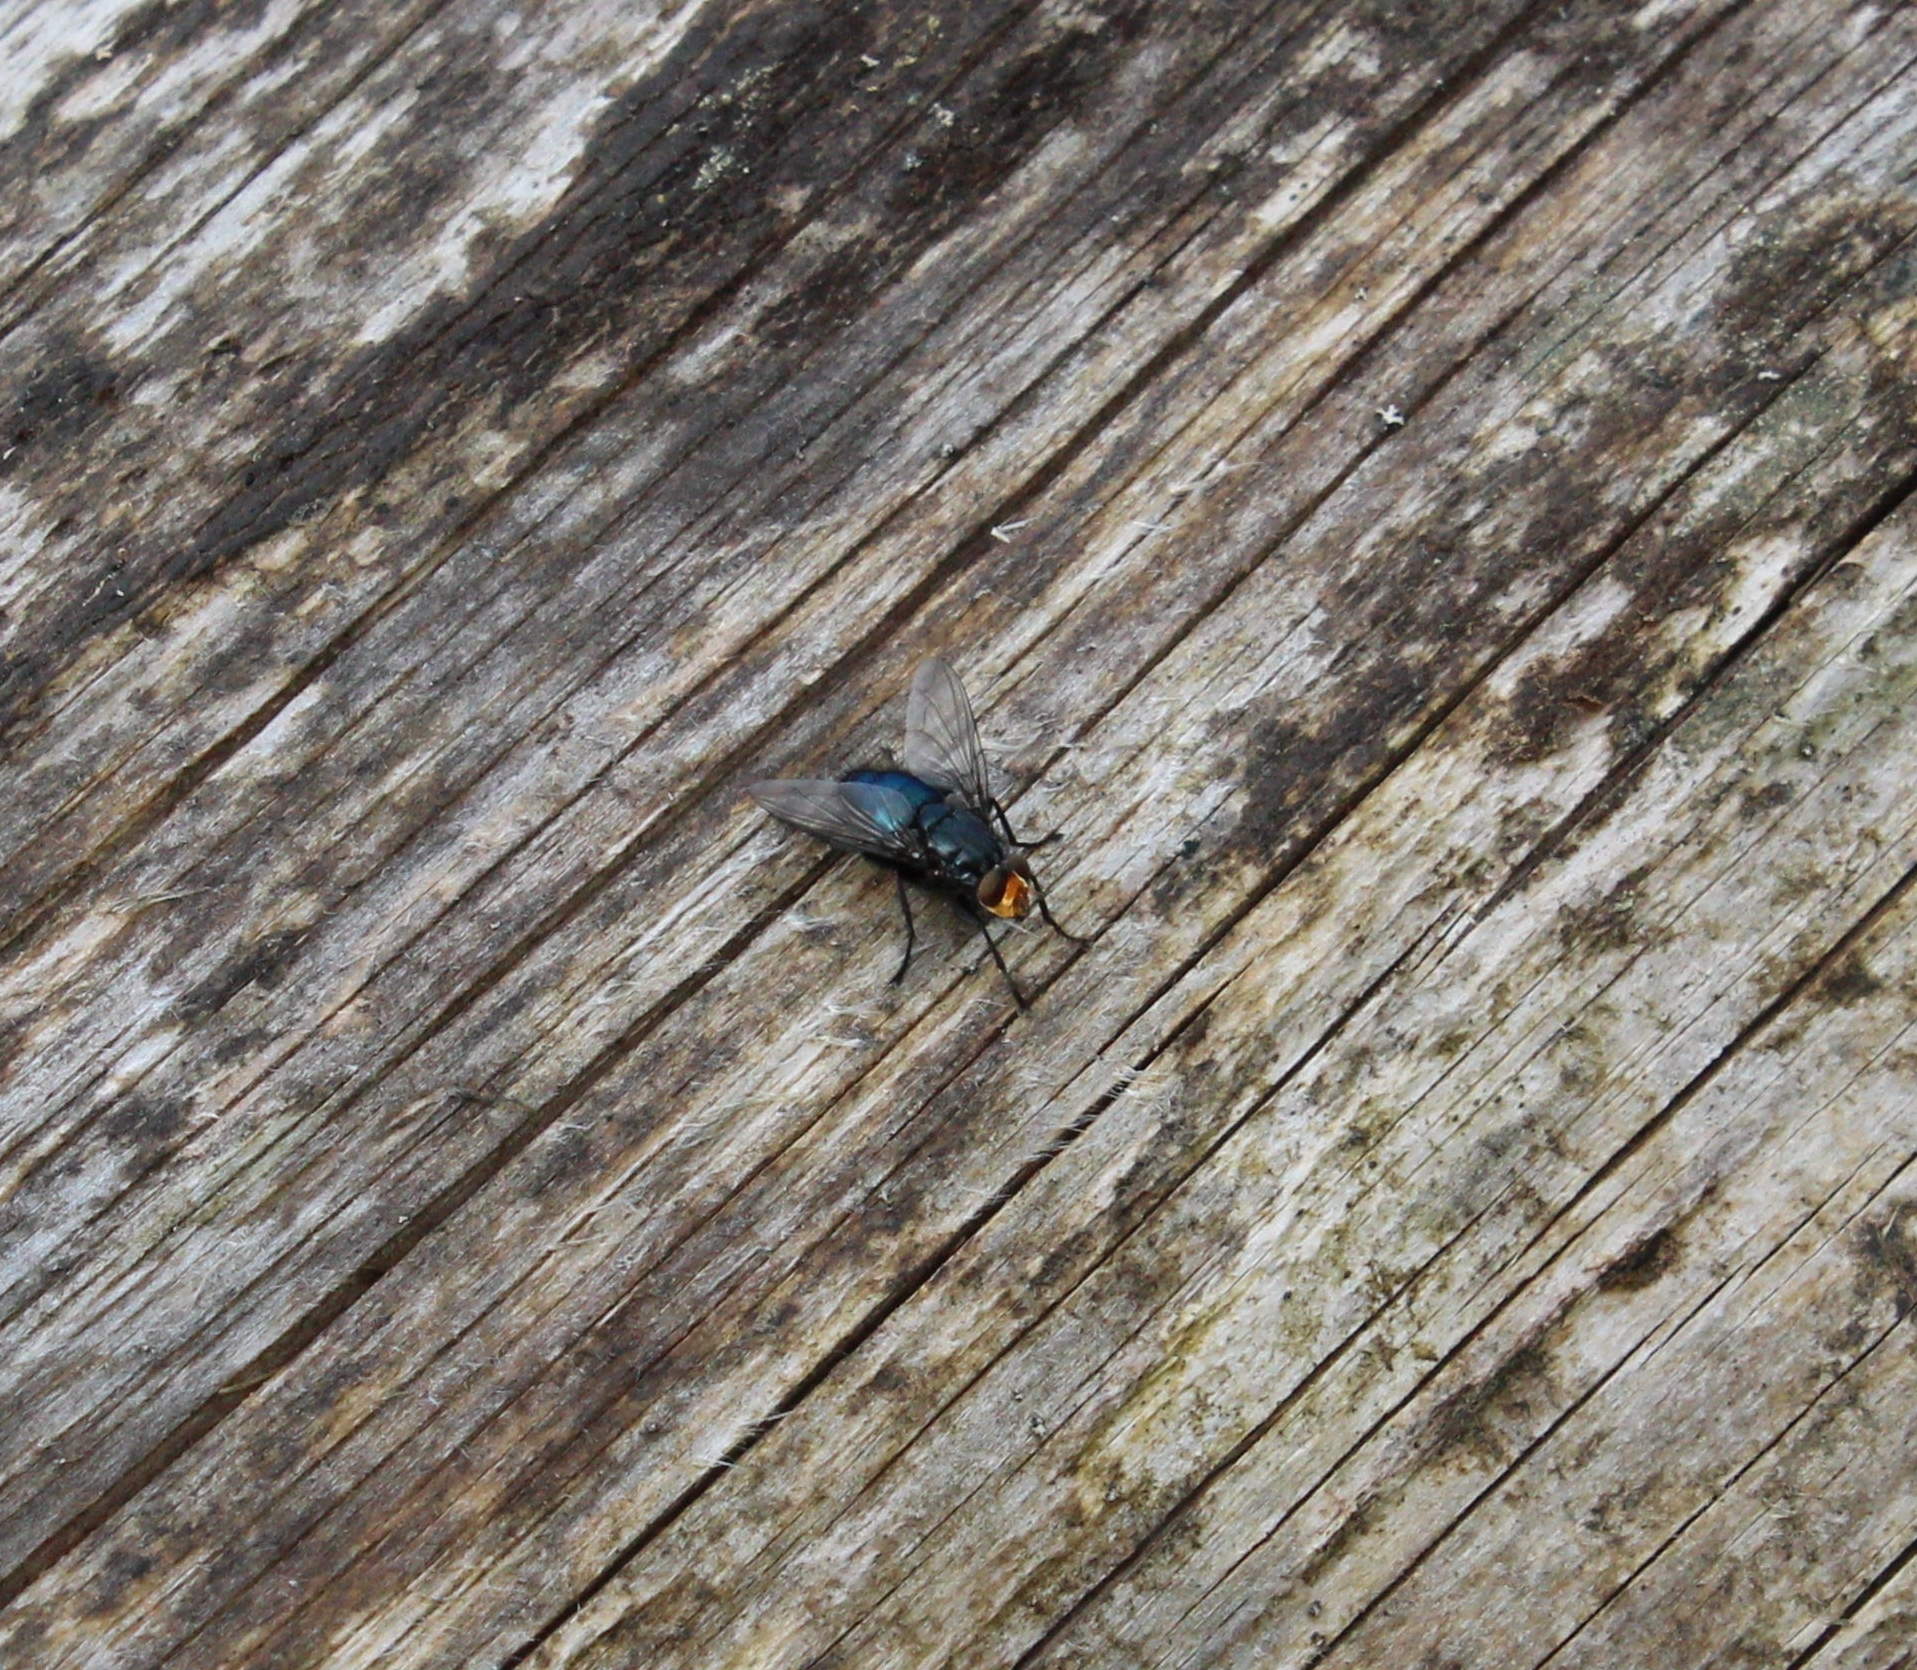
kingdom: Animalia
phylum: Arthropoda
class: Insecta
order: Diptera
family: Calliphoridae
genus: Cynomya
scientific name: Cynomya mortuorum
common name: Bluebottle blow fly
